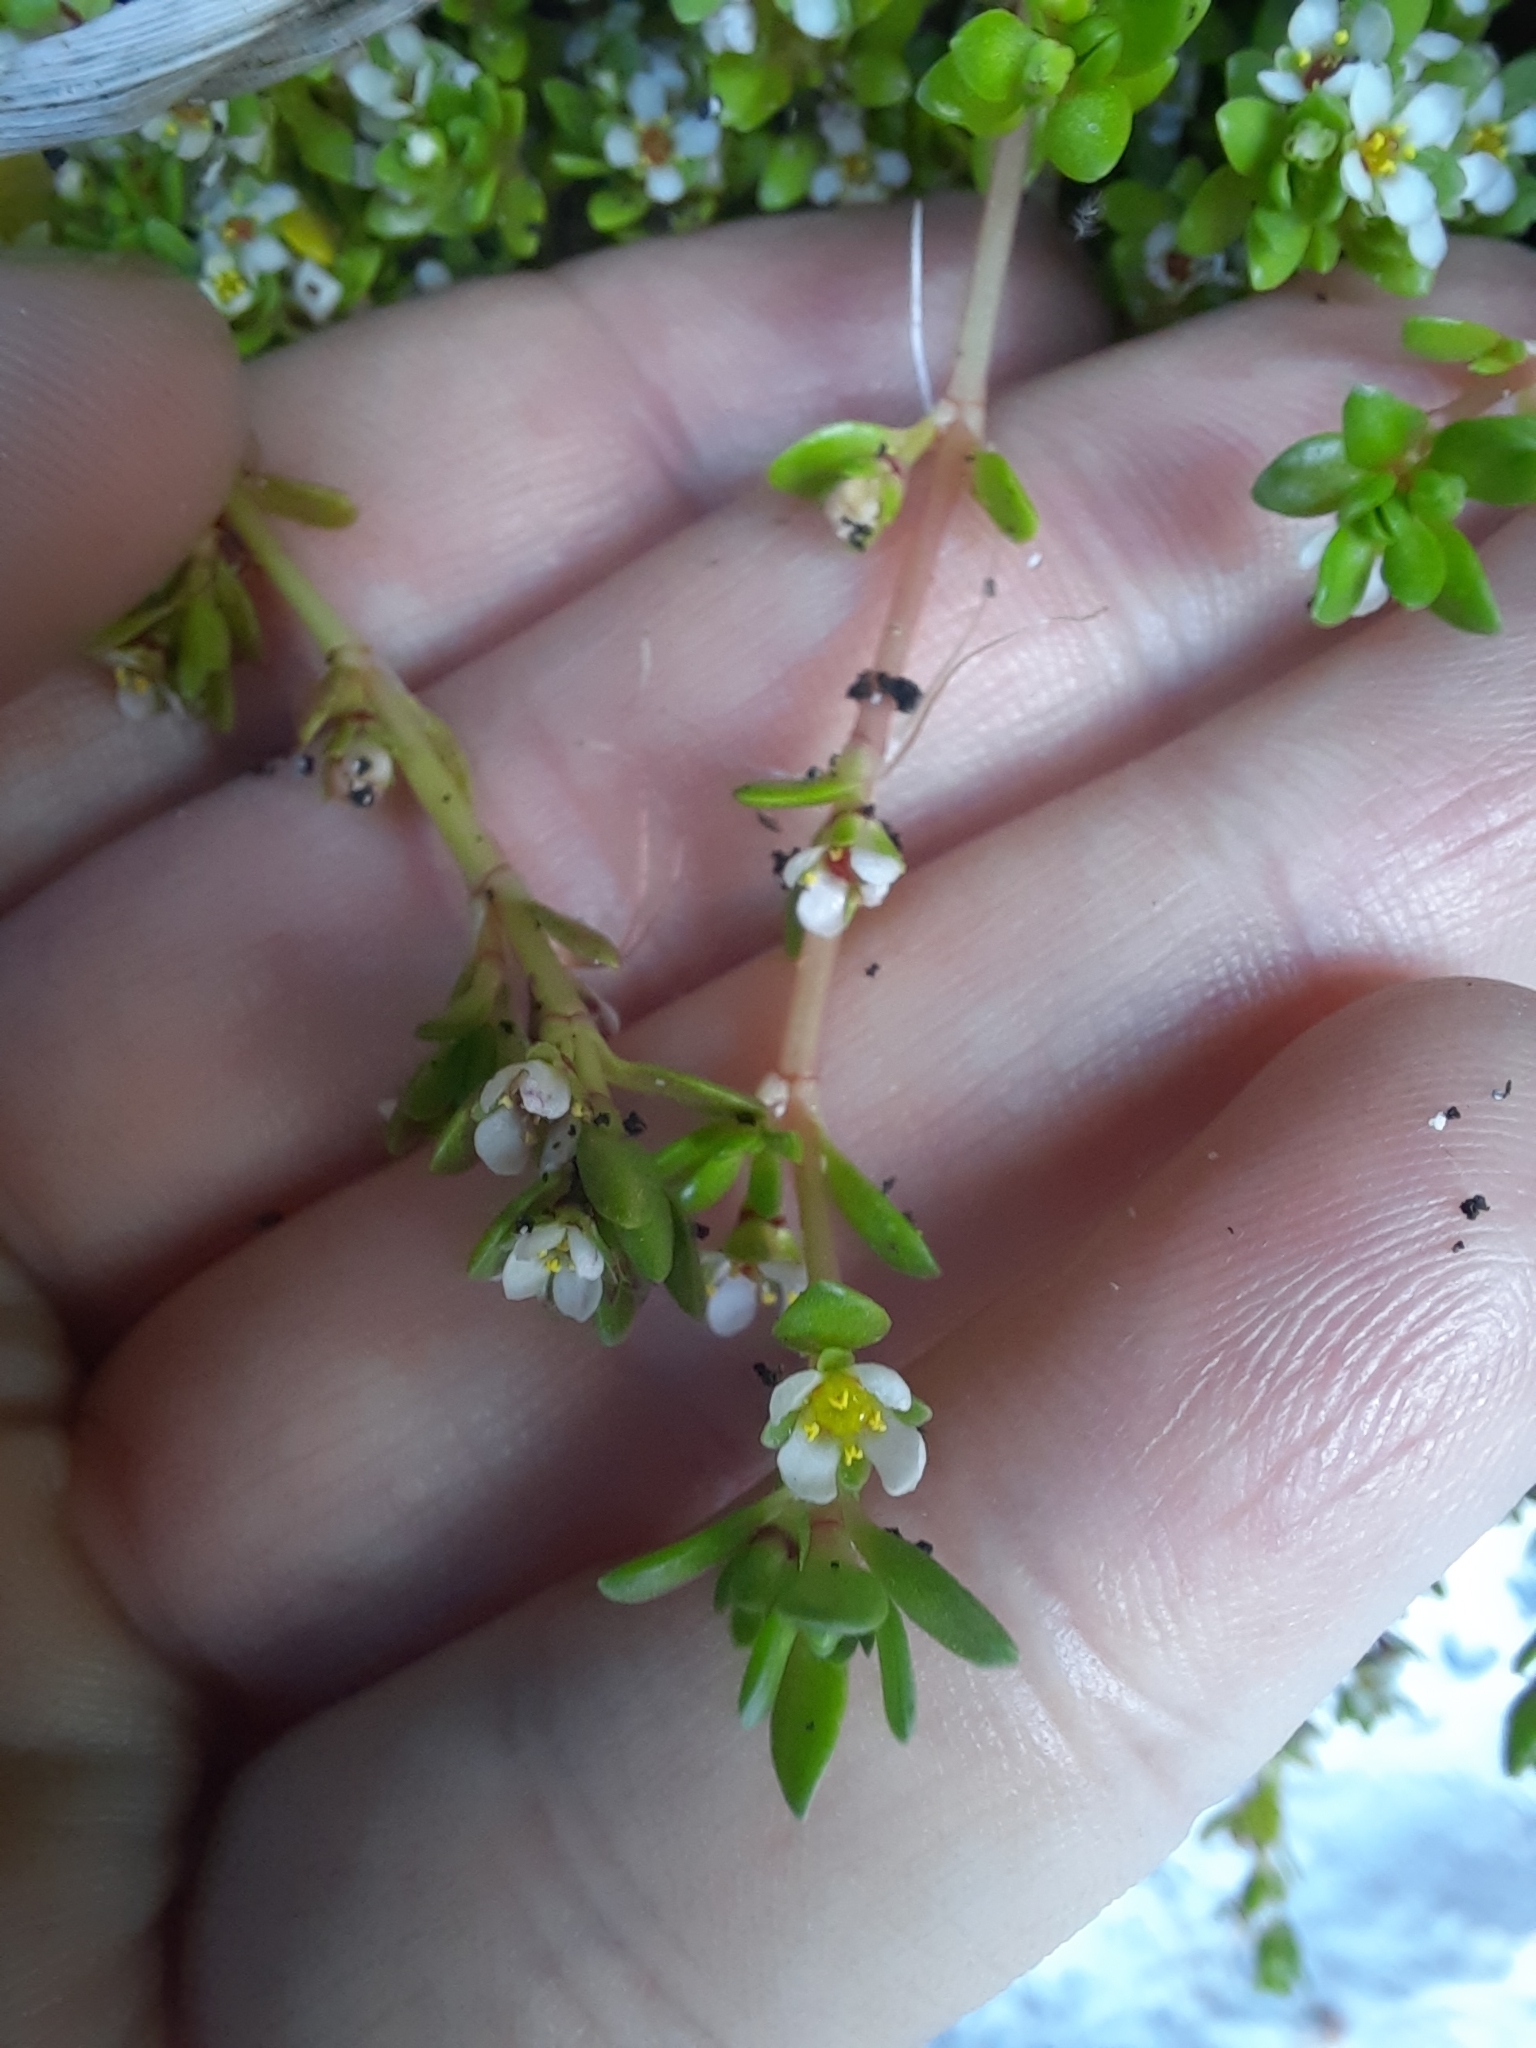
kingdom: Plantae
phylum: Tracheophyta
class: Magnoliopsida
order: Saxifragales
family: Crassulaceae
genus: Crassula
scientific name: Crassula moschata
